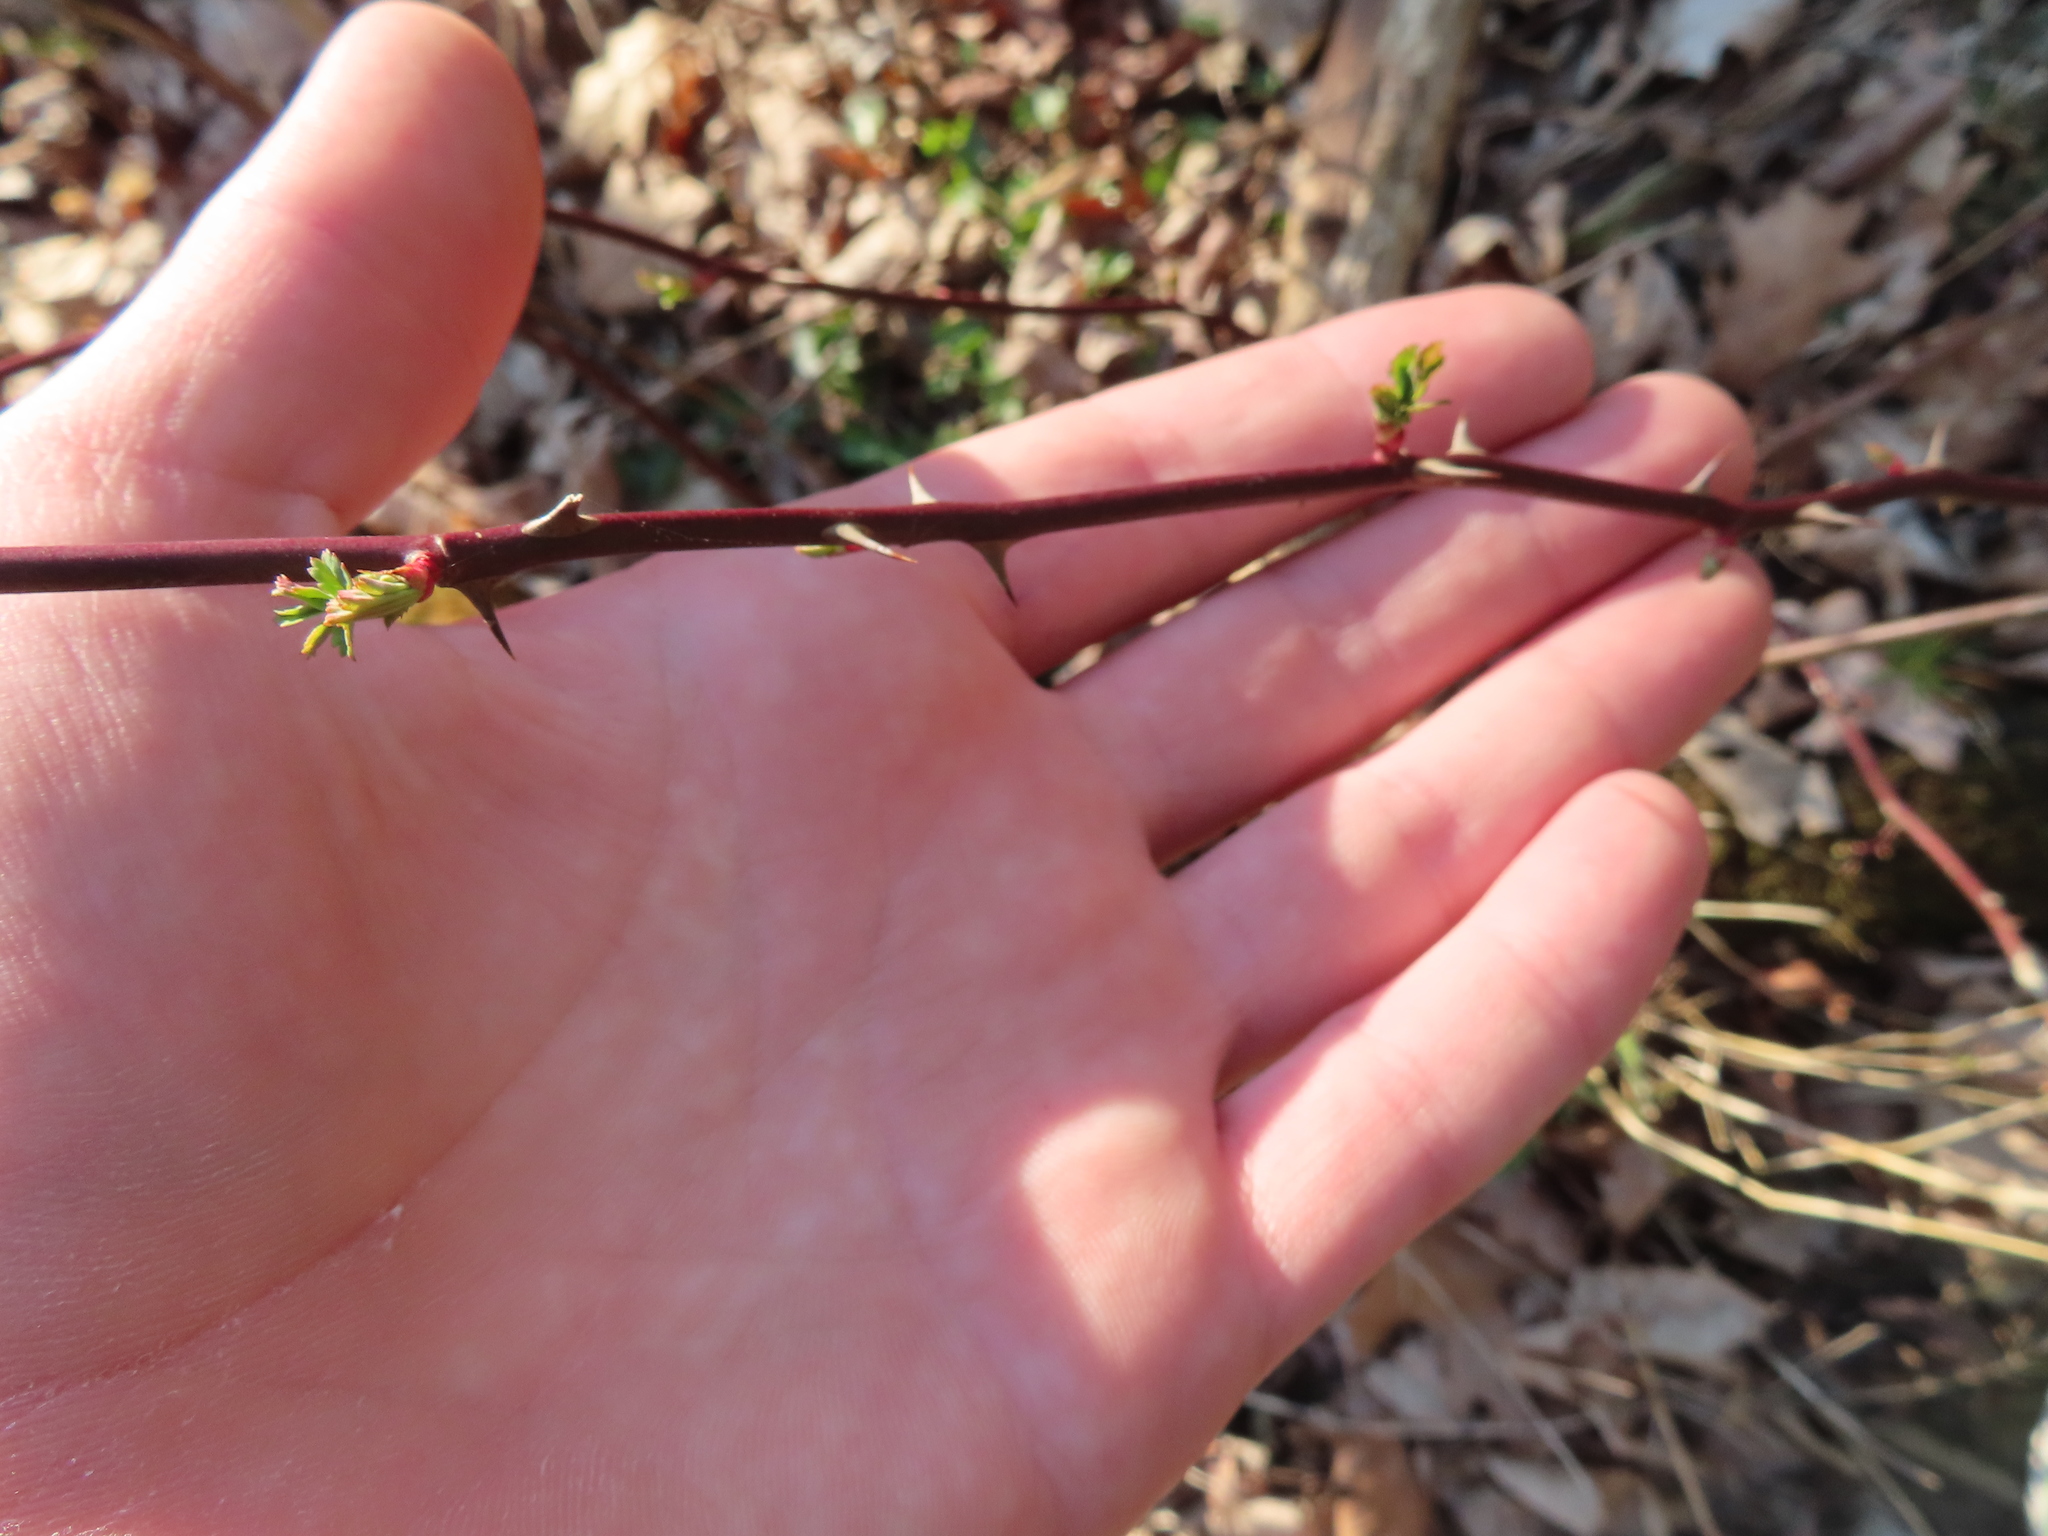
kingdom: Plantae
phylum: Tracheophyta
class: Magnoliopsida
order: Rosales
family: Rosaceae
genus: Rosa
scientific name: Rosa multiflora
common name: Multiflora rose
